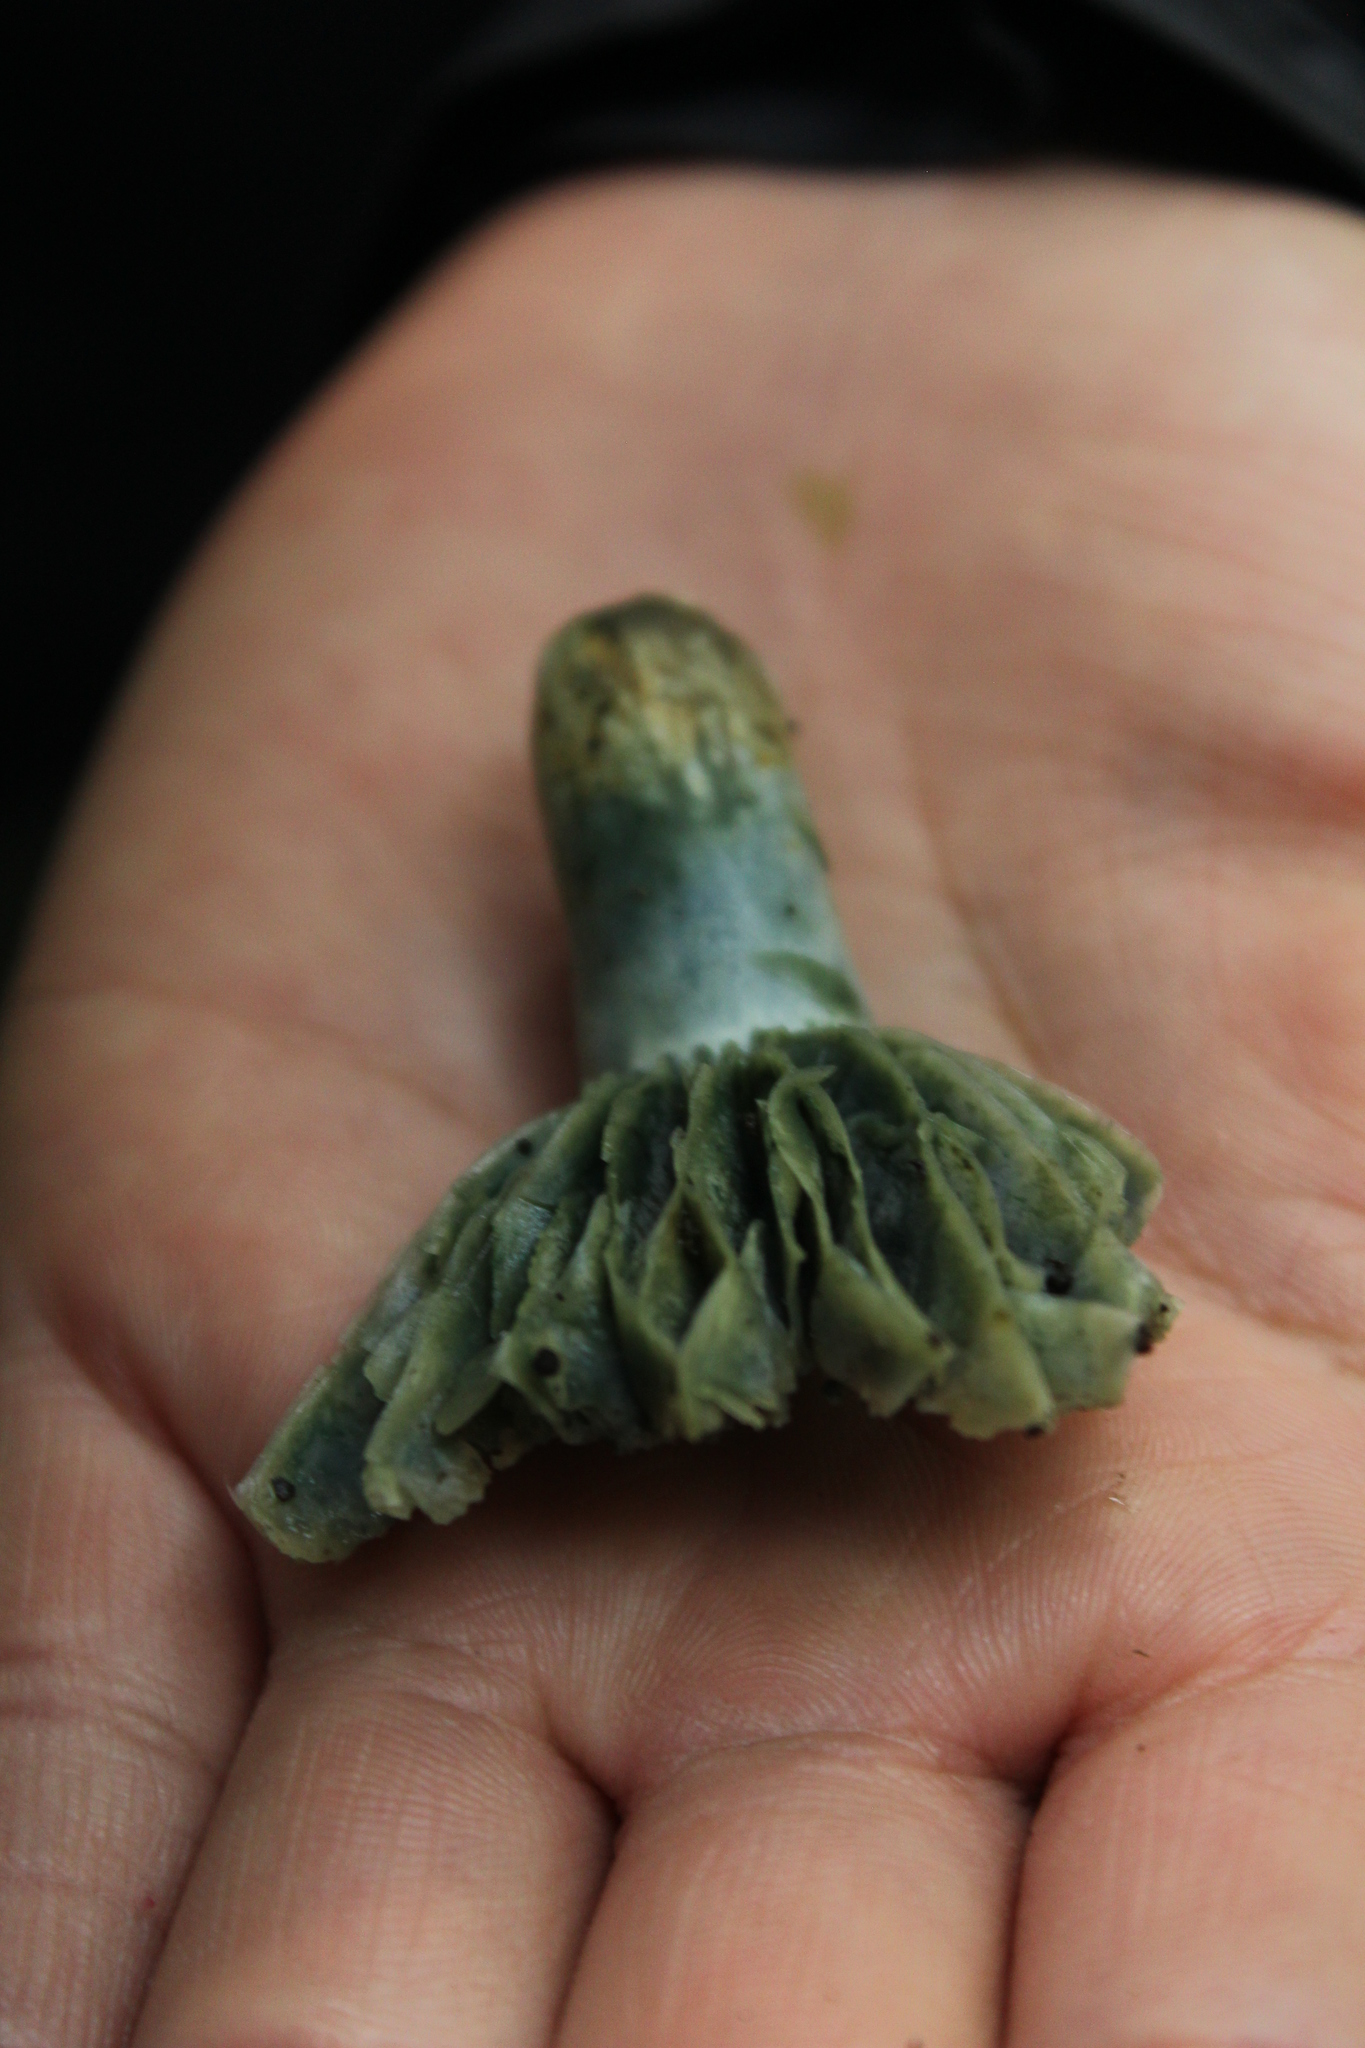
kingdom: Fungi
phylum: Basidiomycota
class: Agaricomycetes
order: Russulales
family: Russulaceae
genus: Lactarius
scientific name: Lactarius indigo
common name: Indigo milk cap
